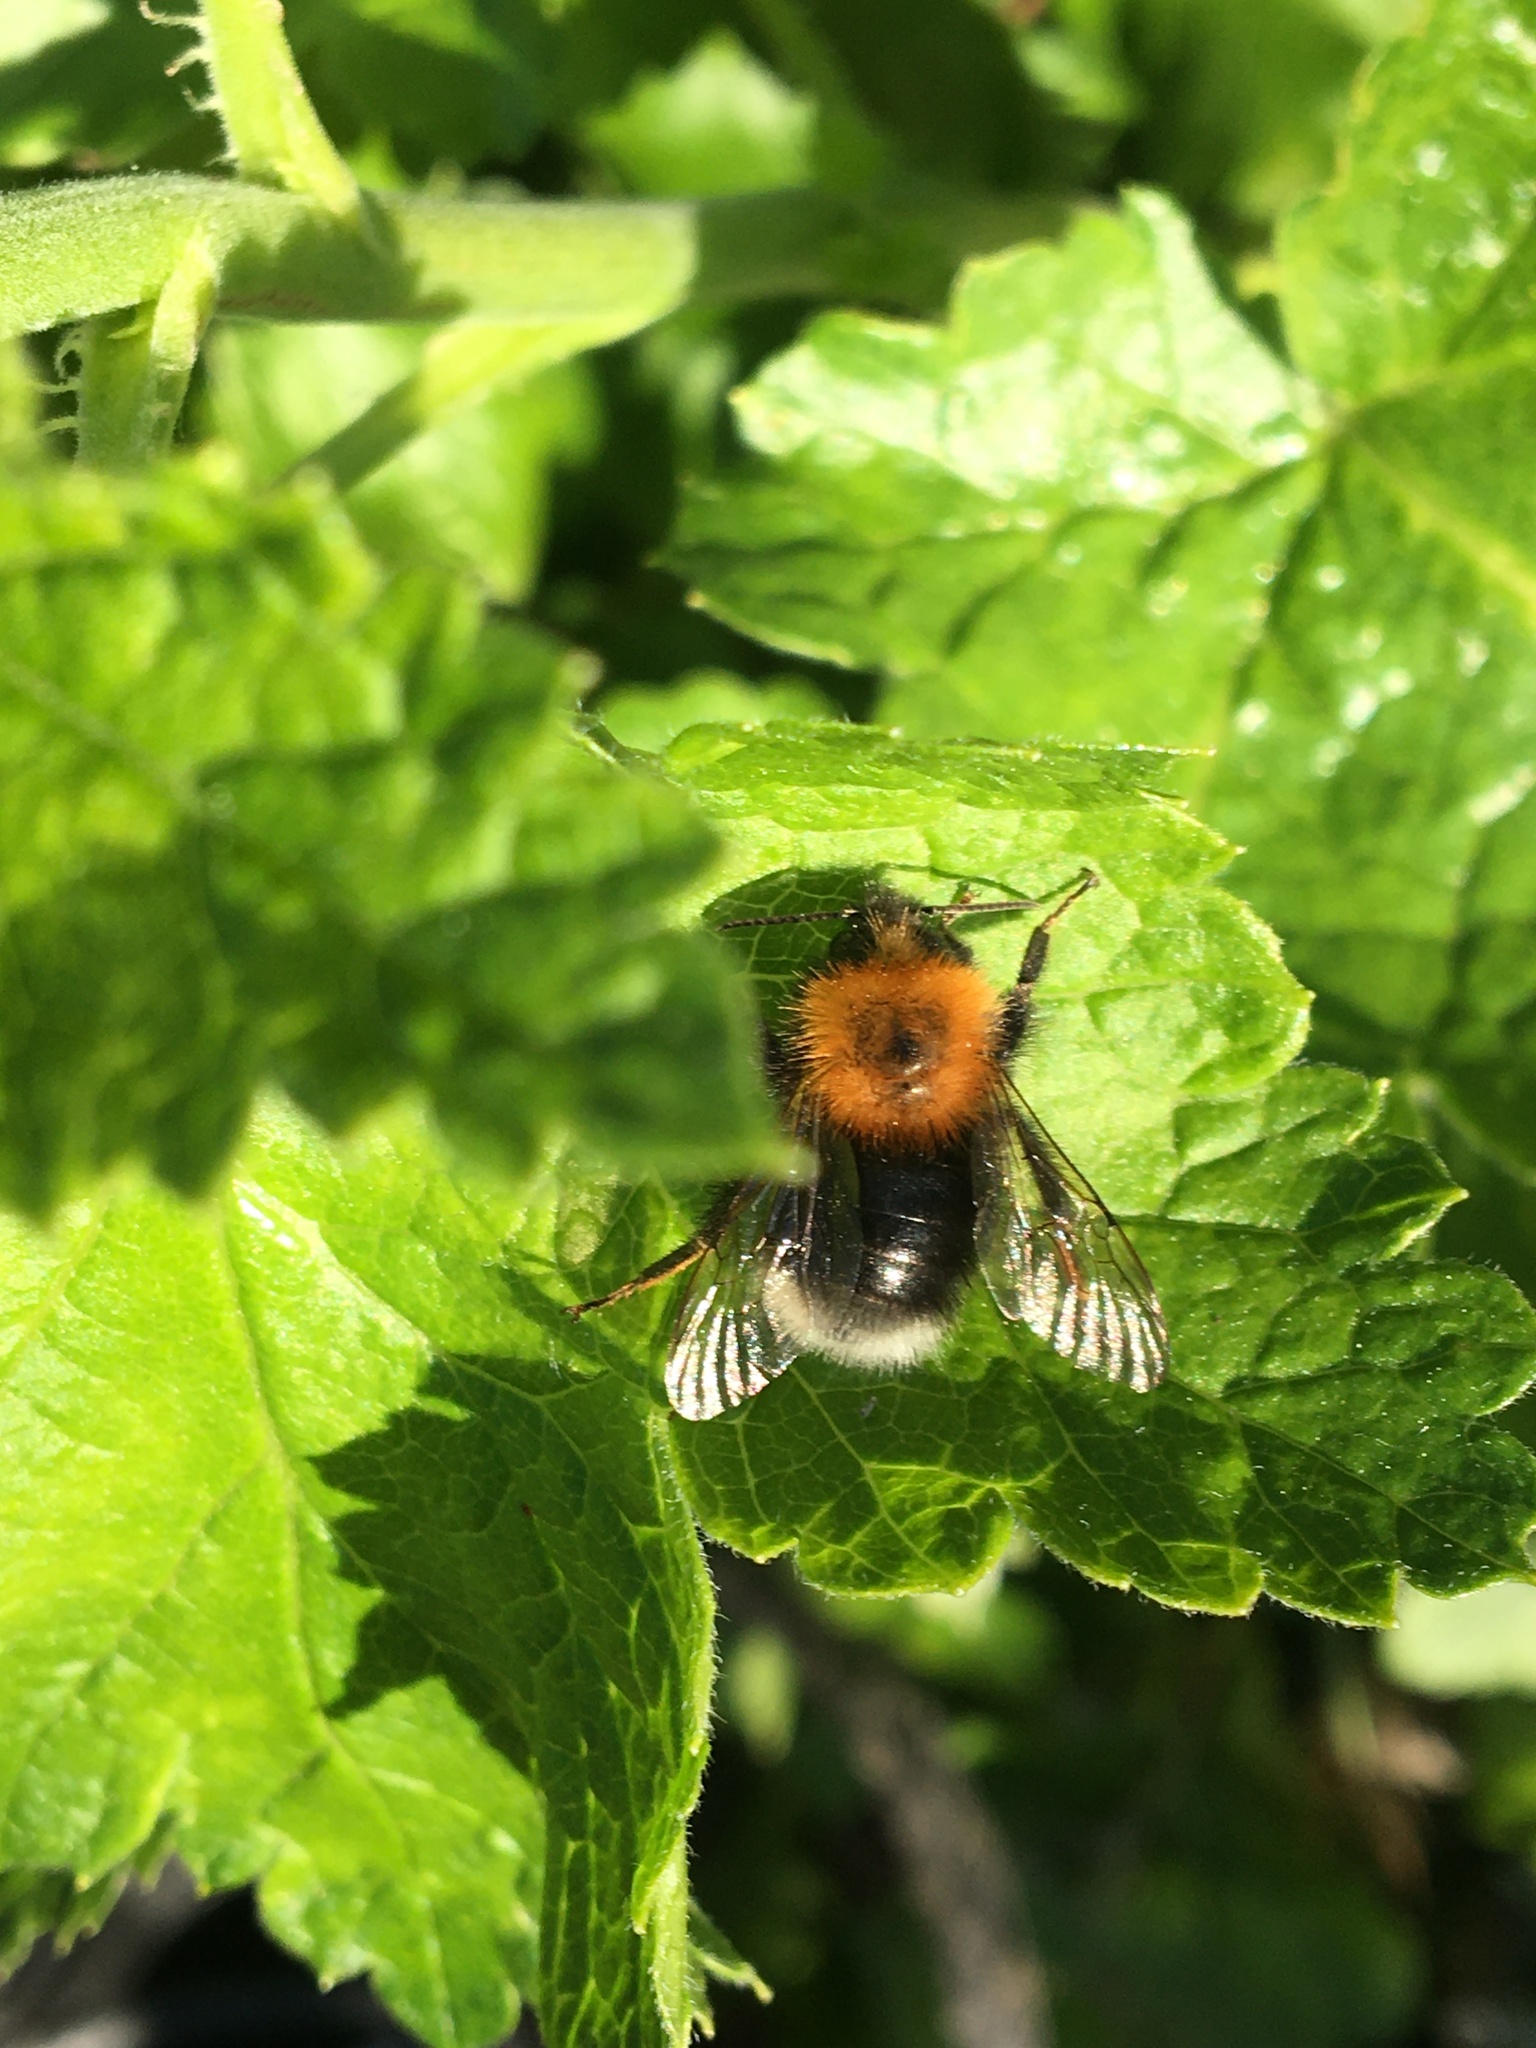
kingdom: Animalia
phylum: Arthropoda
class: Insecta
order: Hymenoptera
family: Apidae
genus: Bombus
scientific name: Bombus hypnorum
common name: New garden bumblebee
